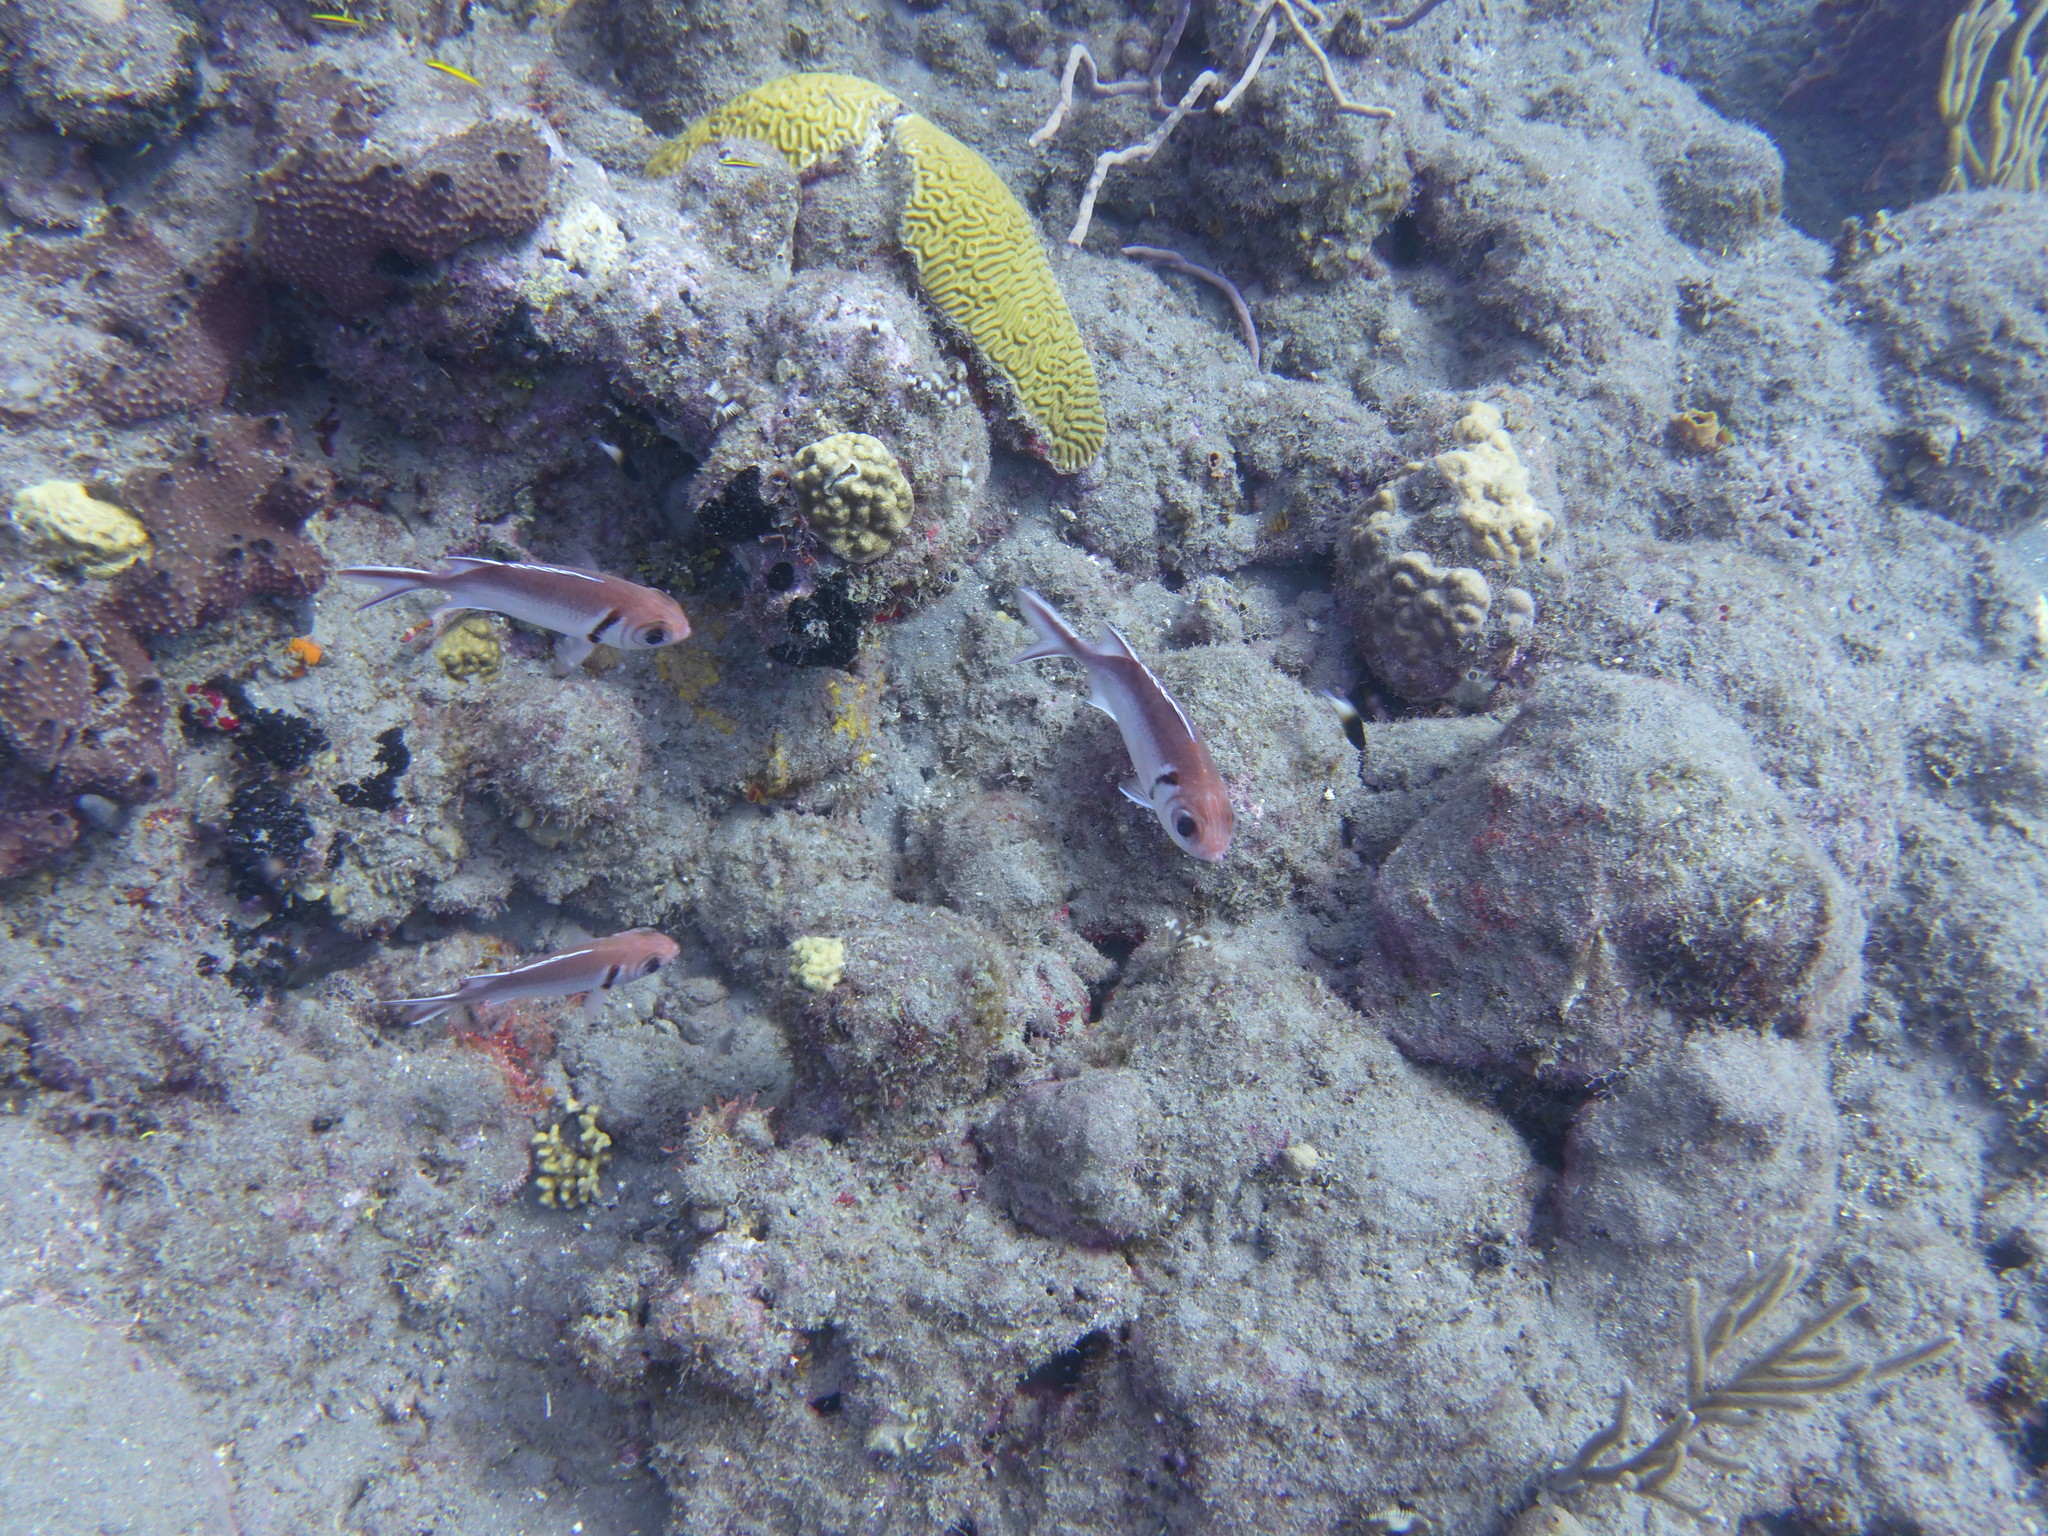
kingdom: Animalia
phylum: Chordata
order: Beryciformes
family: Holocentridae
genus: Myripristis
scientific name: Myripristis jacobus
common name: Blackbar soldierfish
